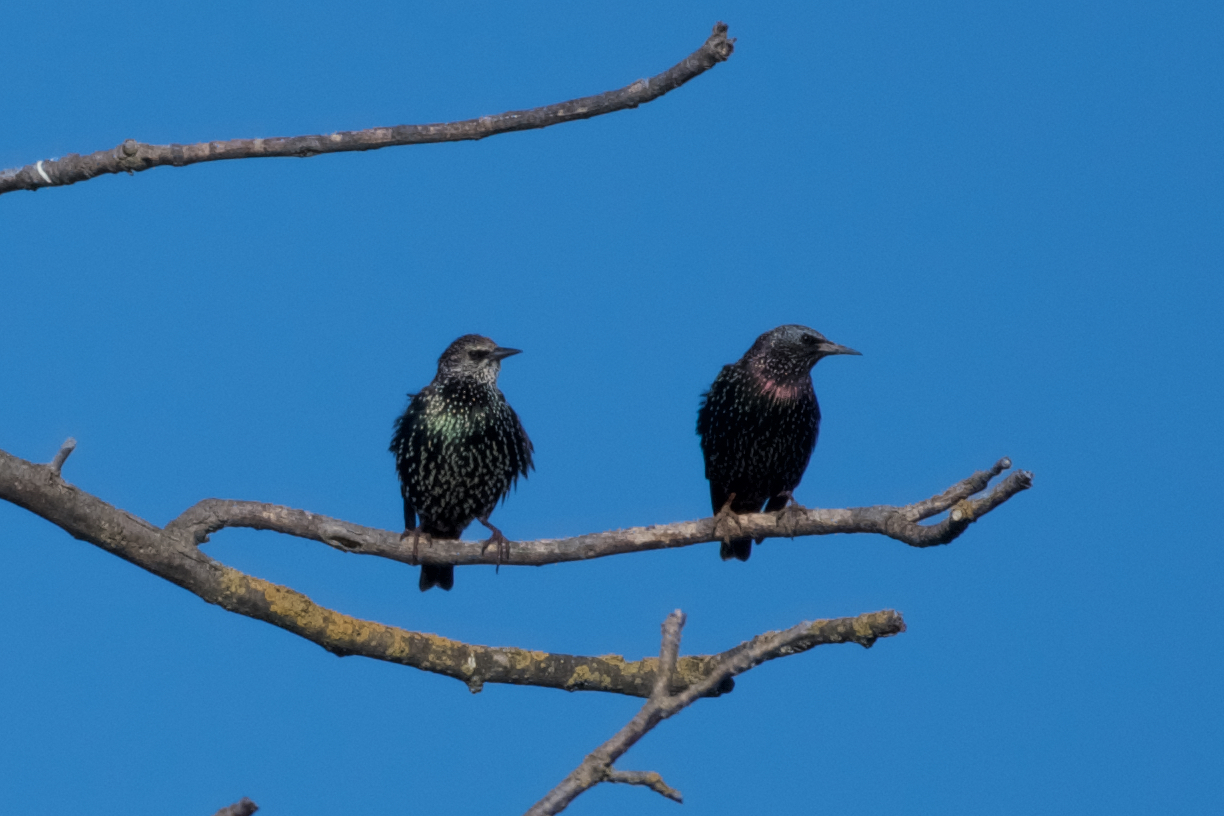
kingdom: Animalia
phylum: Chordata
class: Aves
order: Passeriformes
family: Sturnidae
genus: Sturnus
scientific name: Sturnus vulgaris
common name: Common starling
